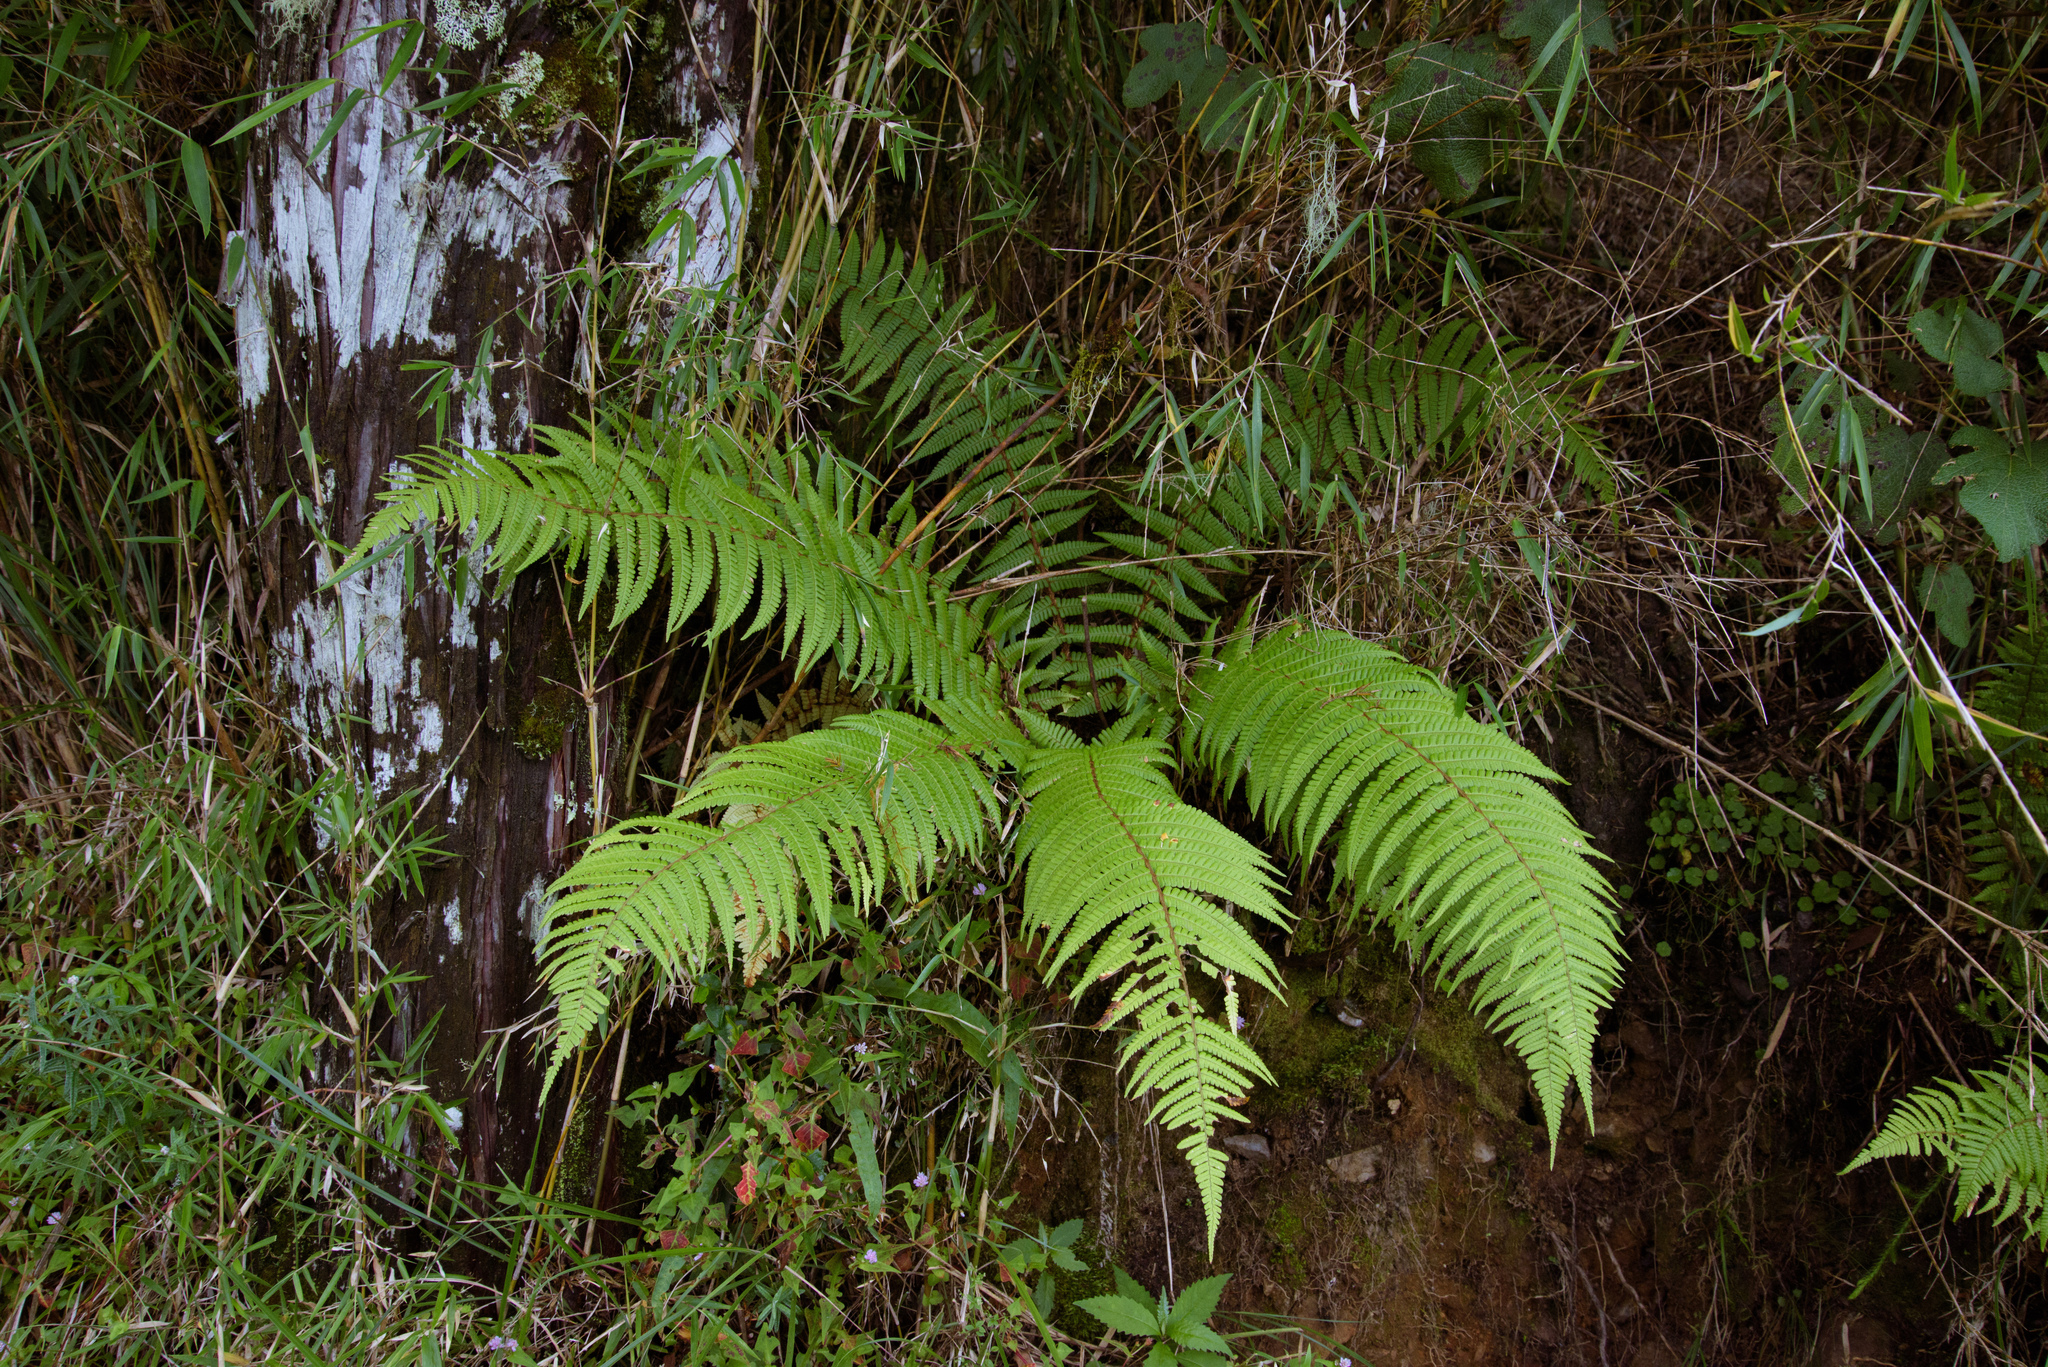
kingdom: Plantae
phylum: Tracheophyta
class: Polypodiopsida
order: Polypodiales
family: Dryopteridaceae
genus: Dryopteris
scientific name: Dryopteris wallichiana
